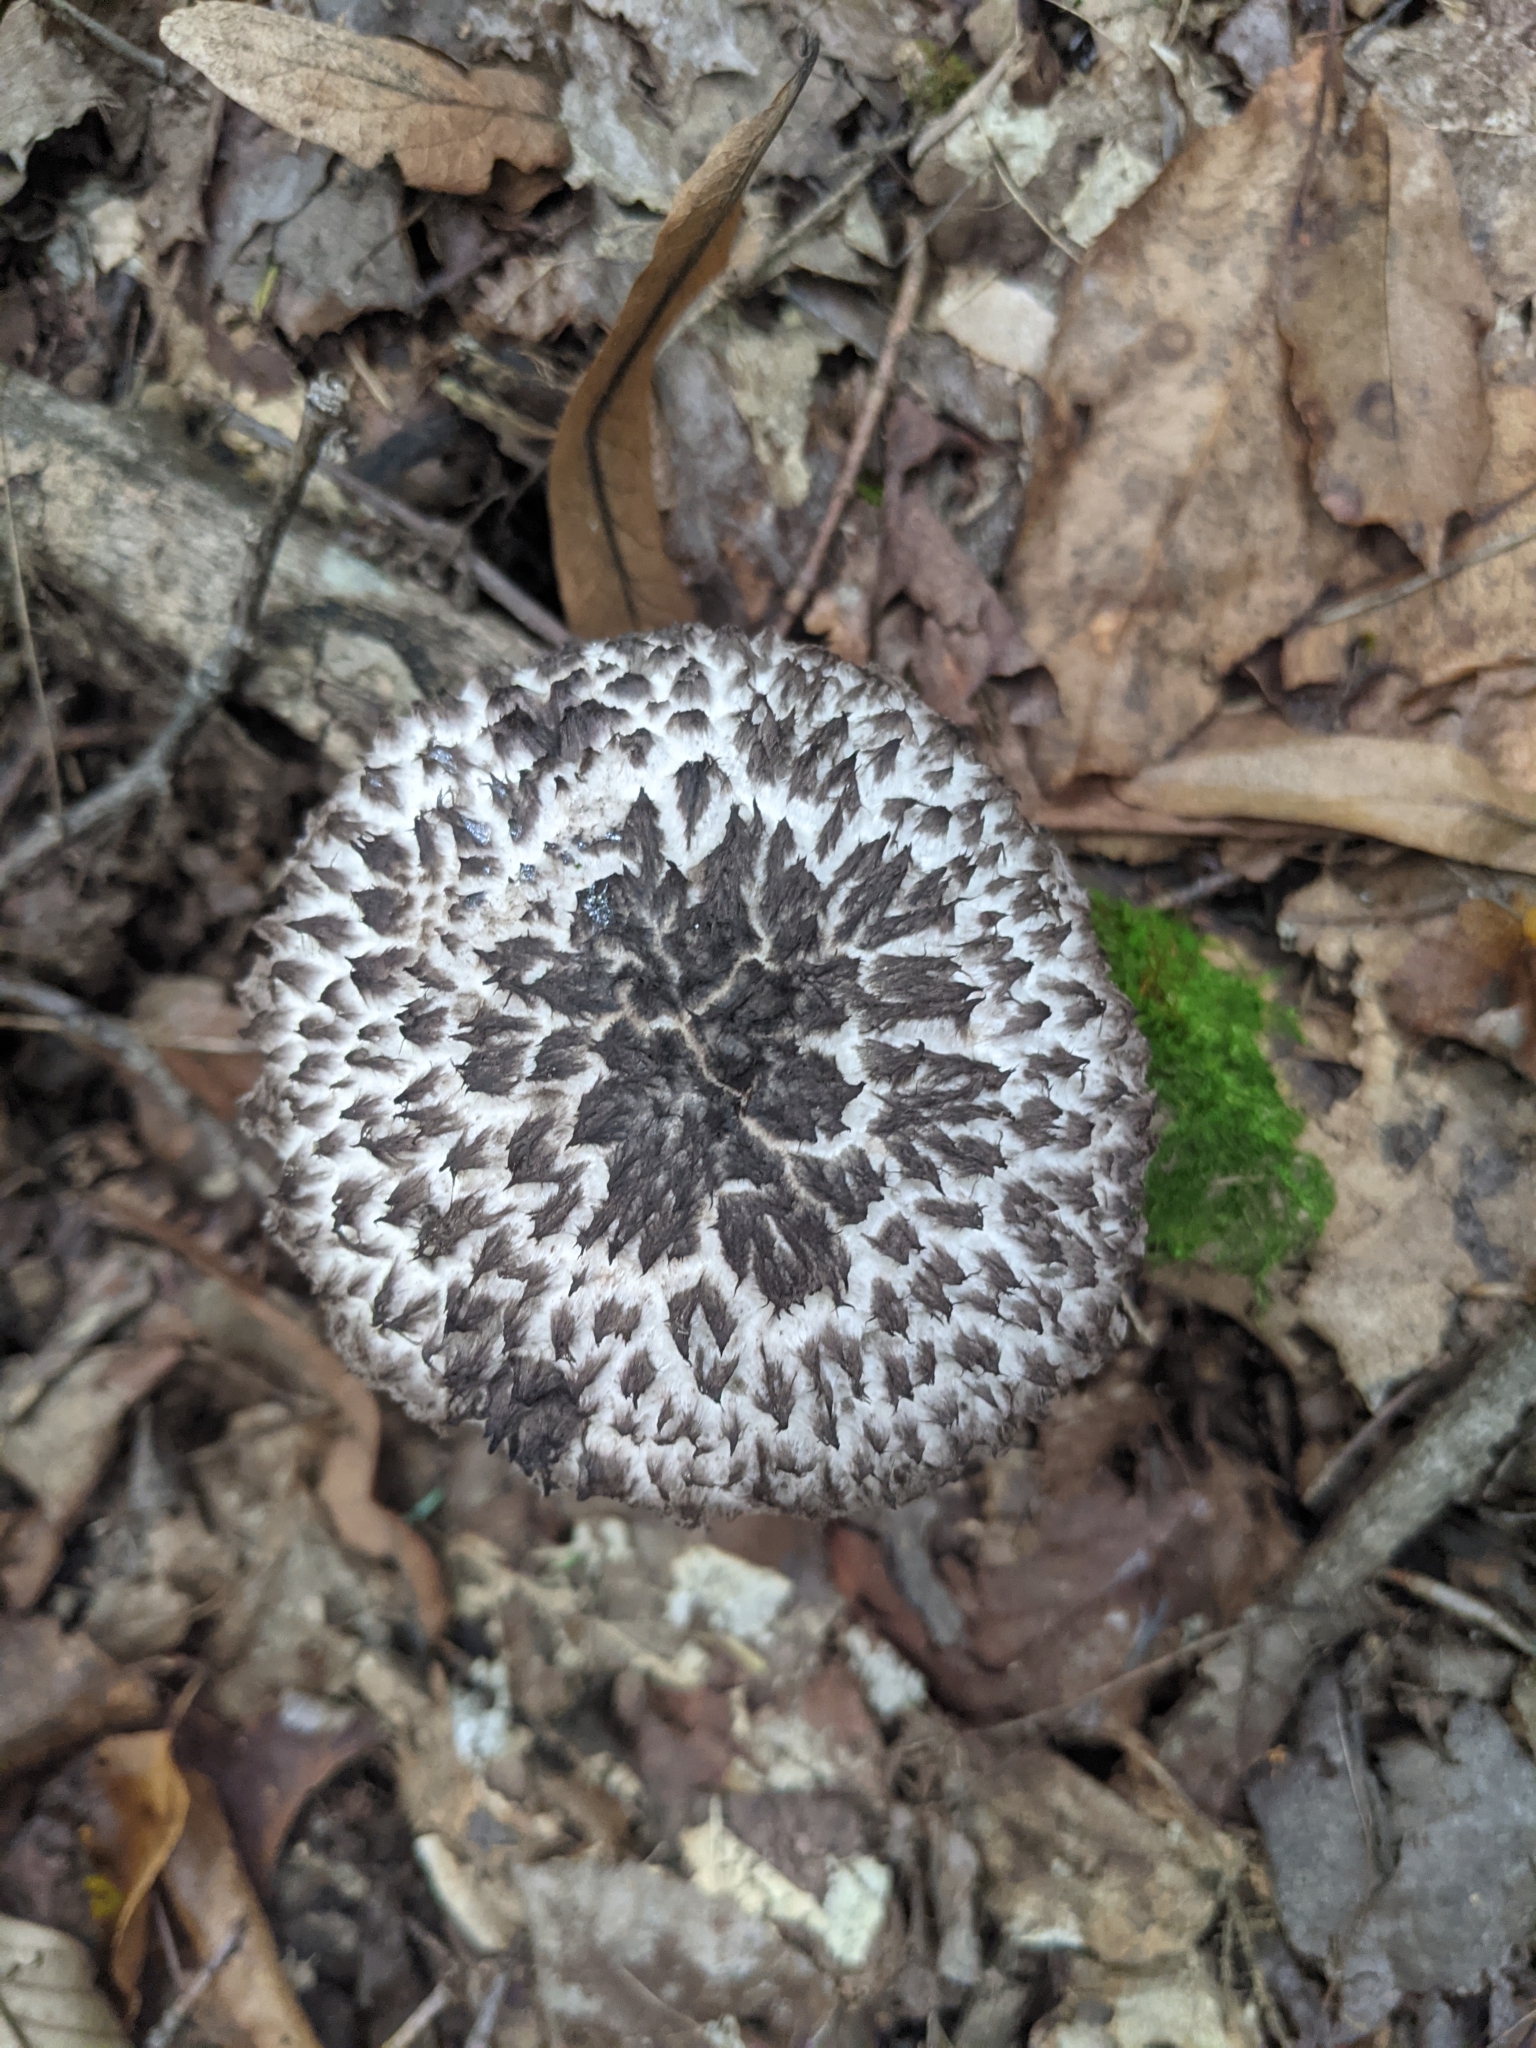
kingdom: Fungi
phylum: Basidiomycota
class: Agaricomycetes
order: Boletales
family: Boletaceae
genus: Strobilomyces
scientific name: Strobilomyces strobilaceus
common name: Old man of the woods
